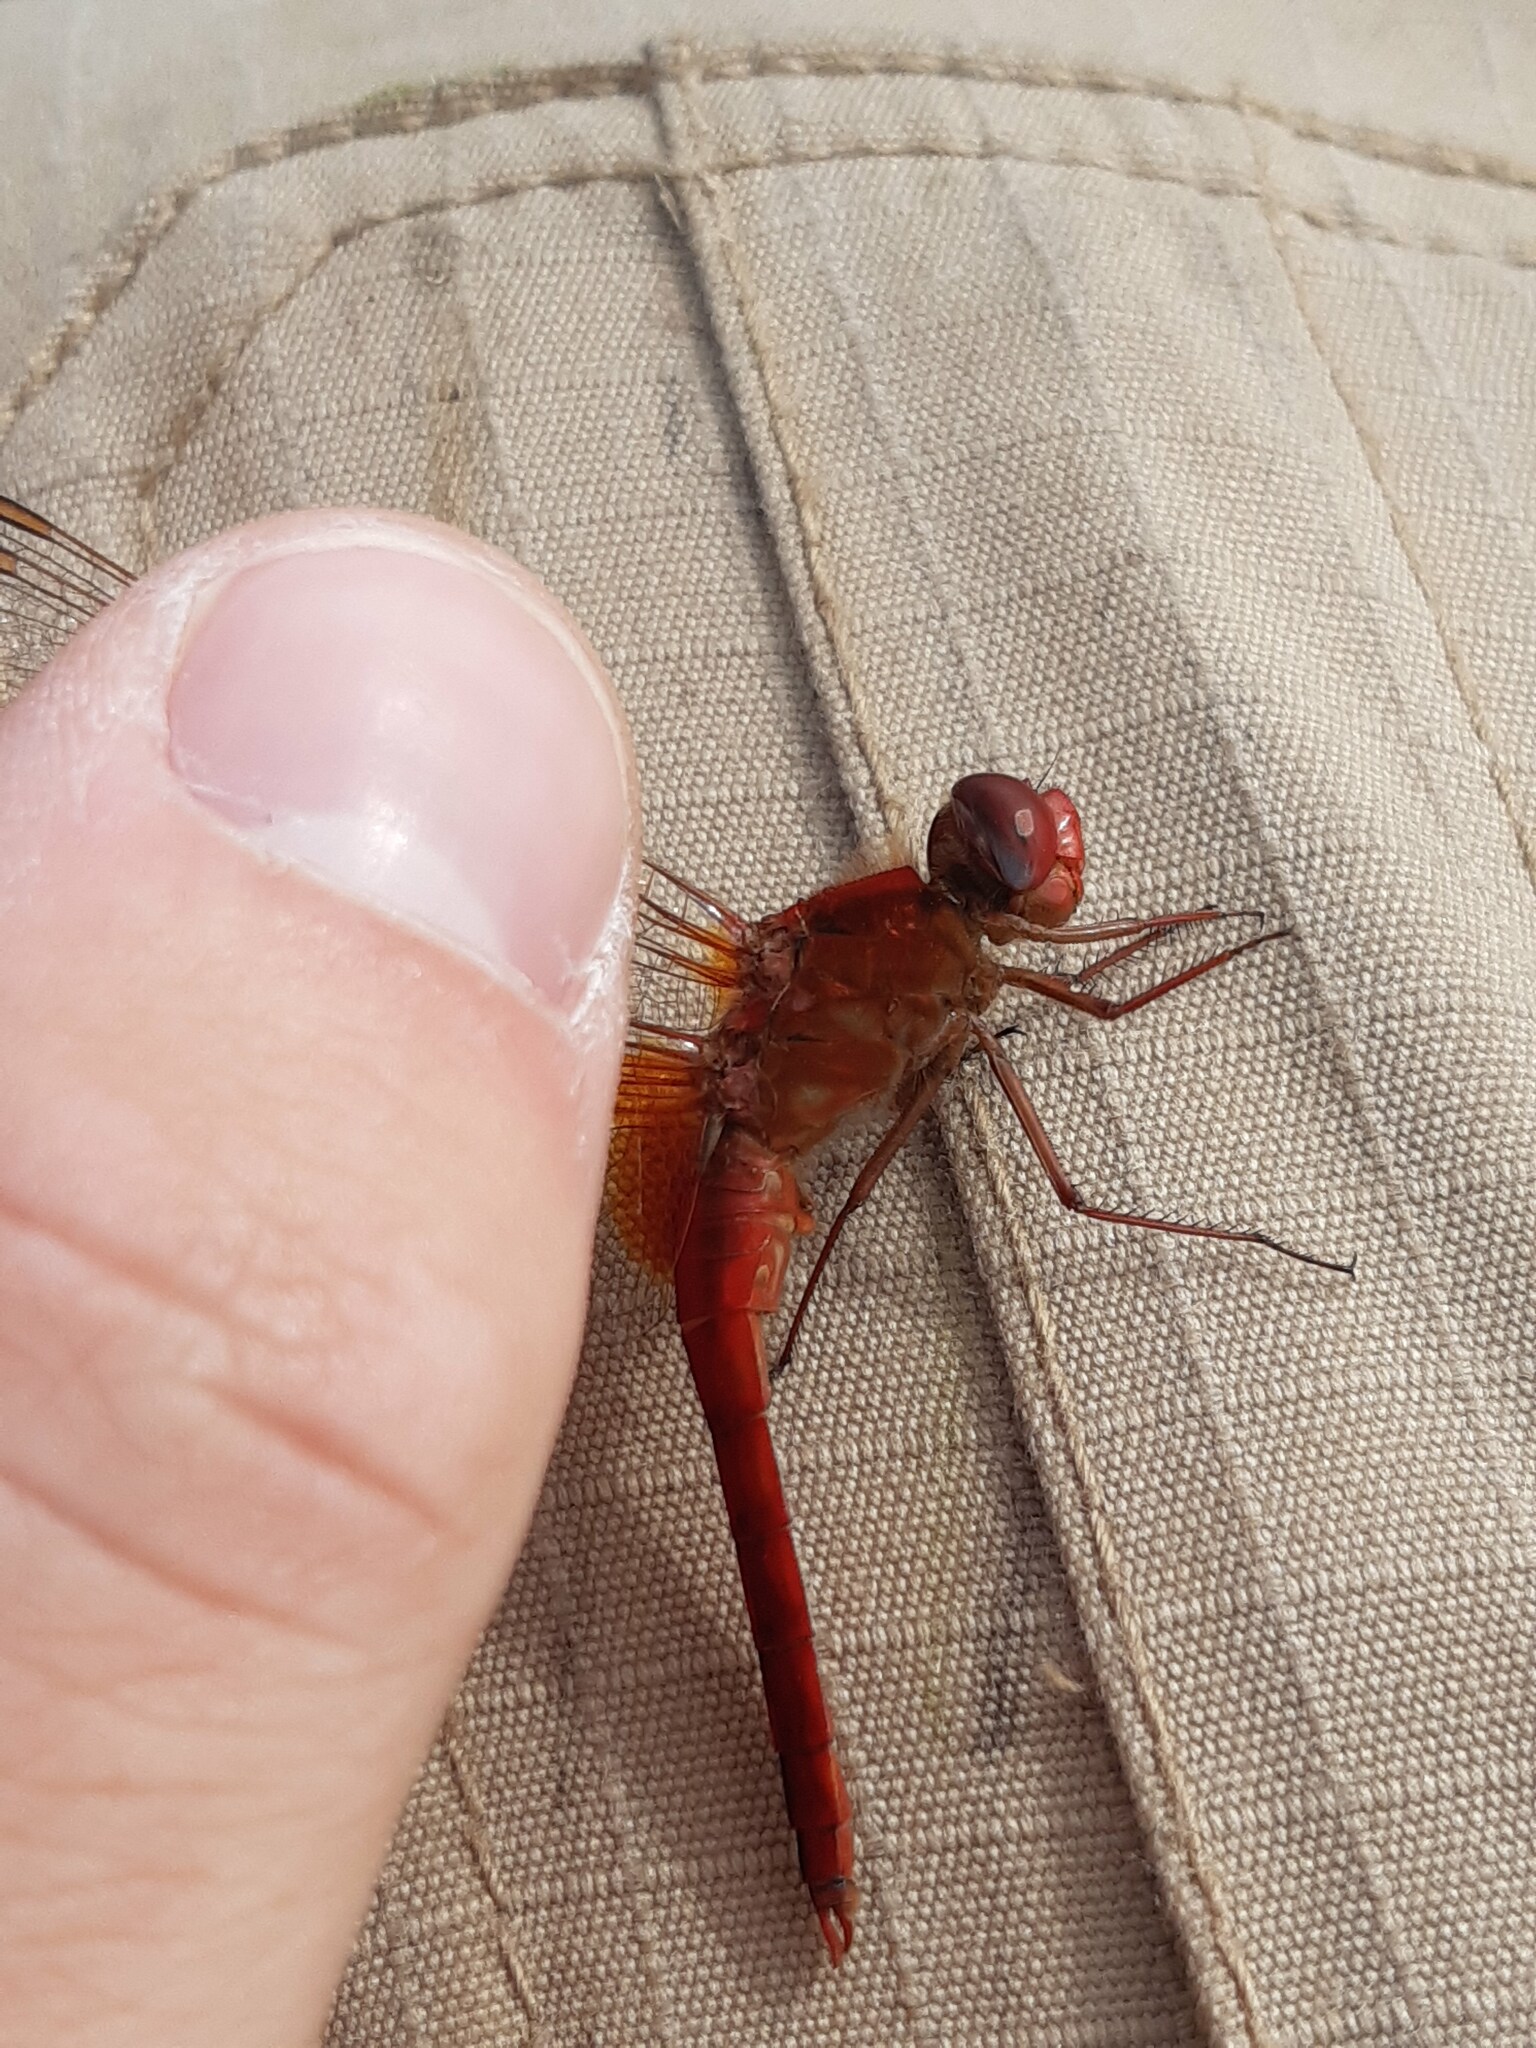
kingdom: Animalia
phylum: Arthropoda
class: Insecta
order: Odonata
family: Libellulidae
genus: Crocothemis
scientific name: Crocothemis erythraea
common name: Scarlet dragonfly
